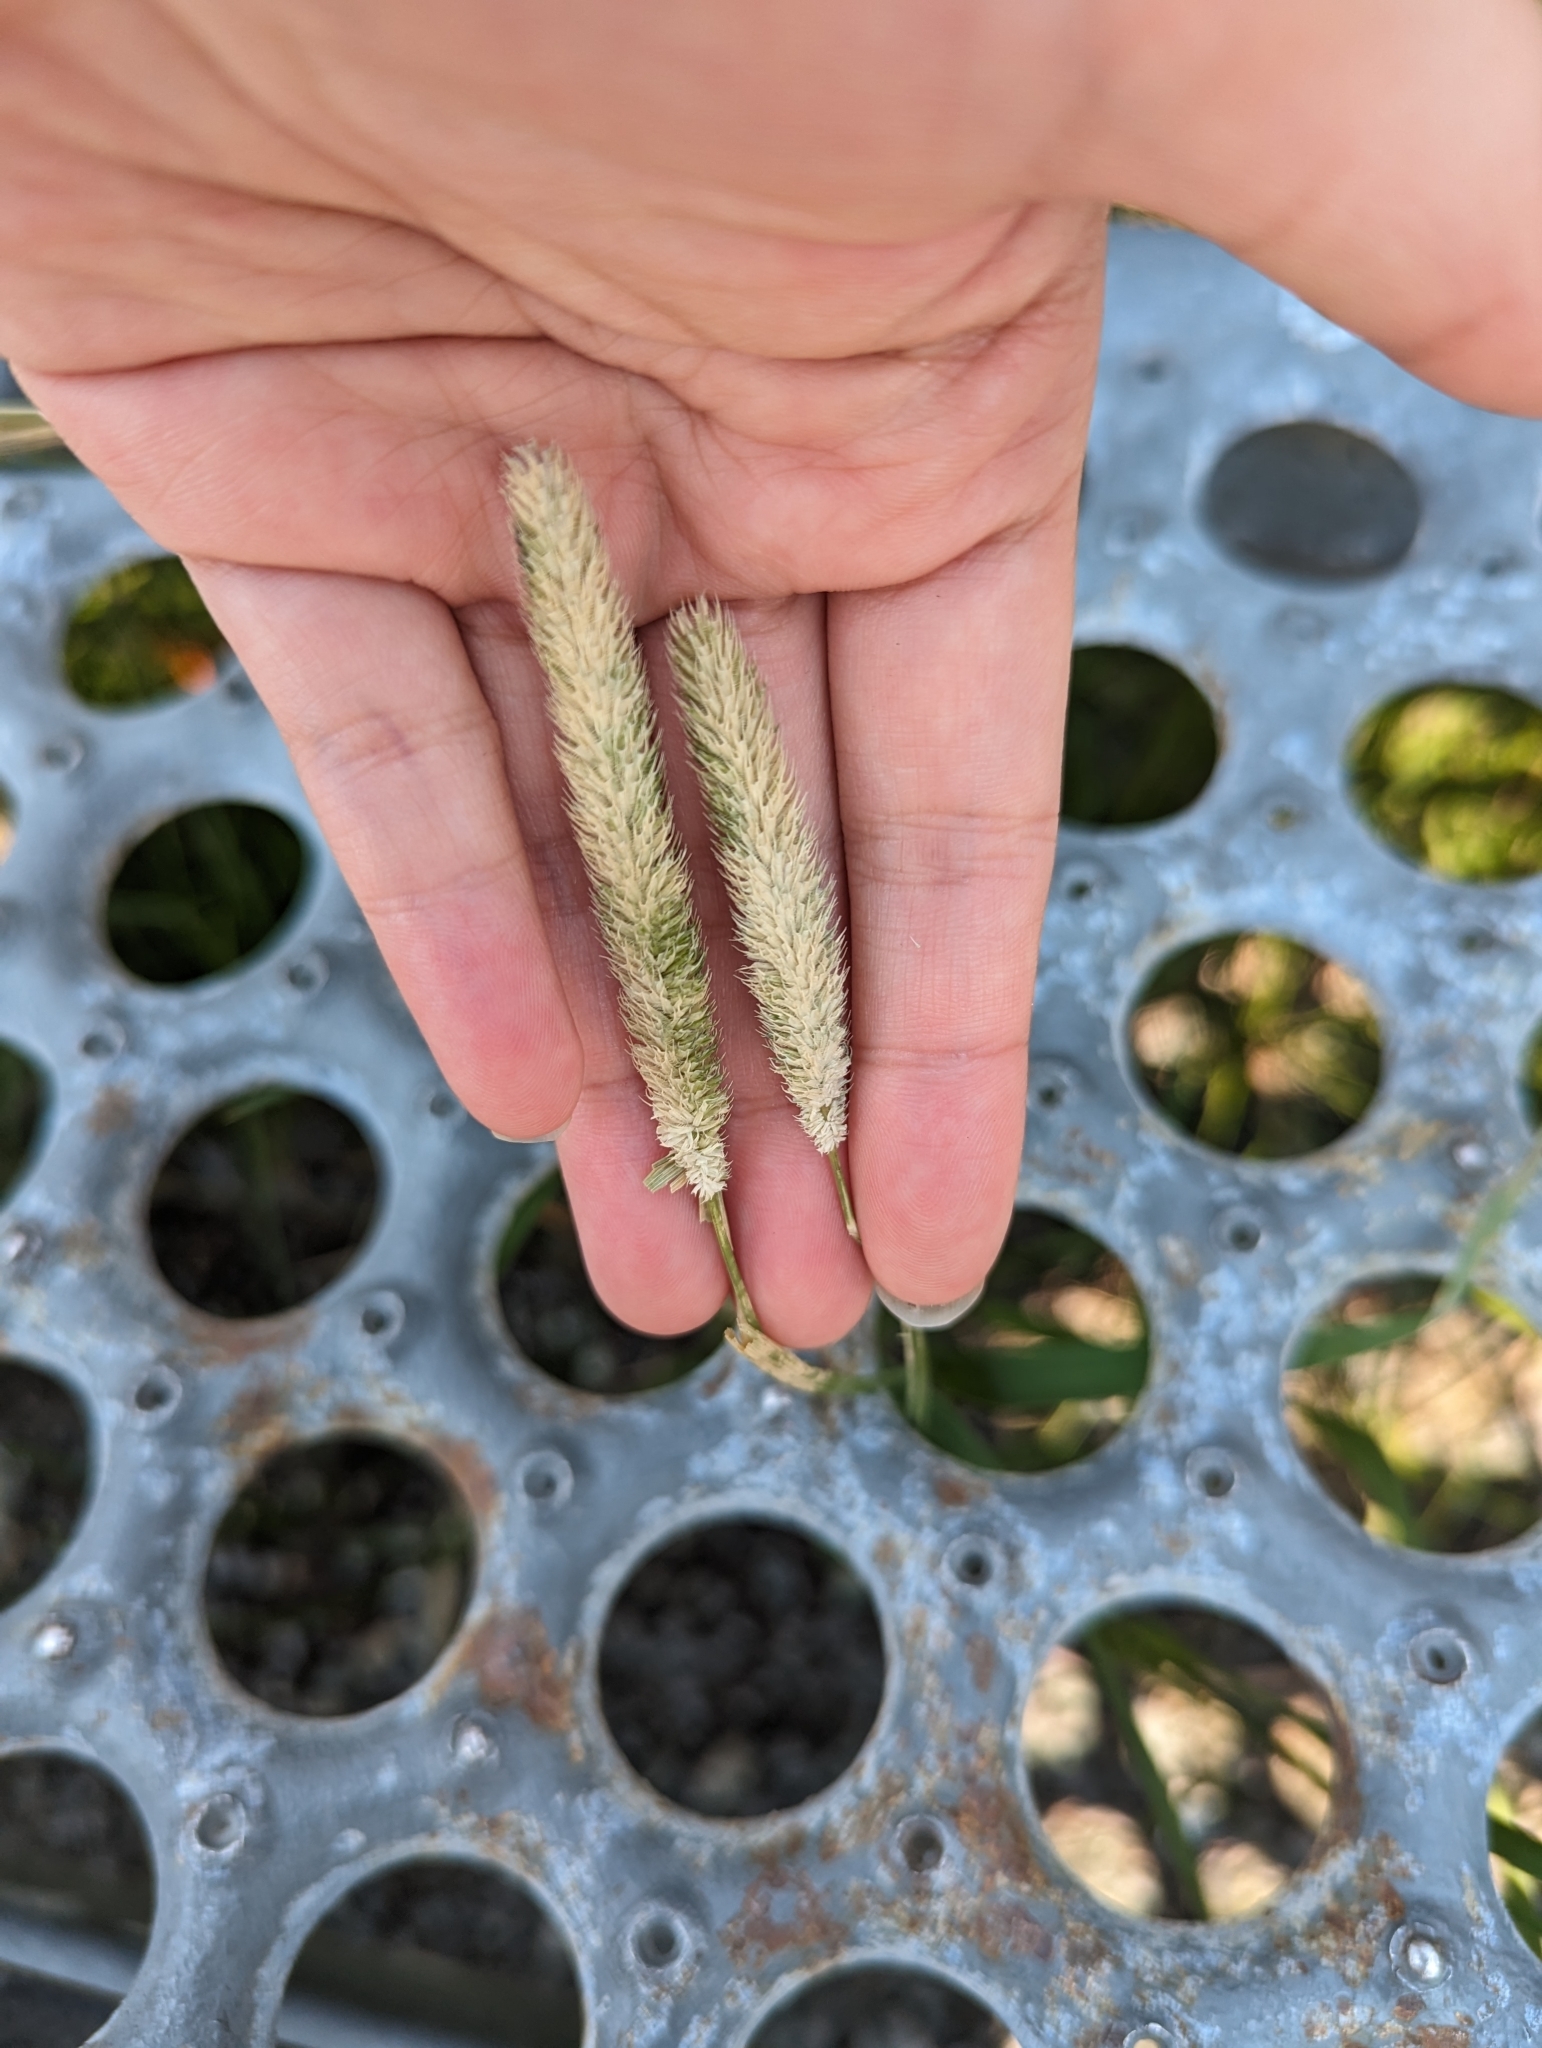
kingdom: Plantae
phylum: Tracheophyta
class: Liliopsida
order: Poales
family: Poaceae
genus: Phleum
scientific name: Phleum pratense
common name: Timothy grass
